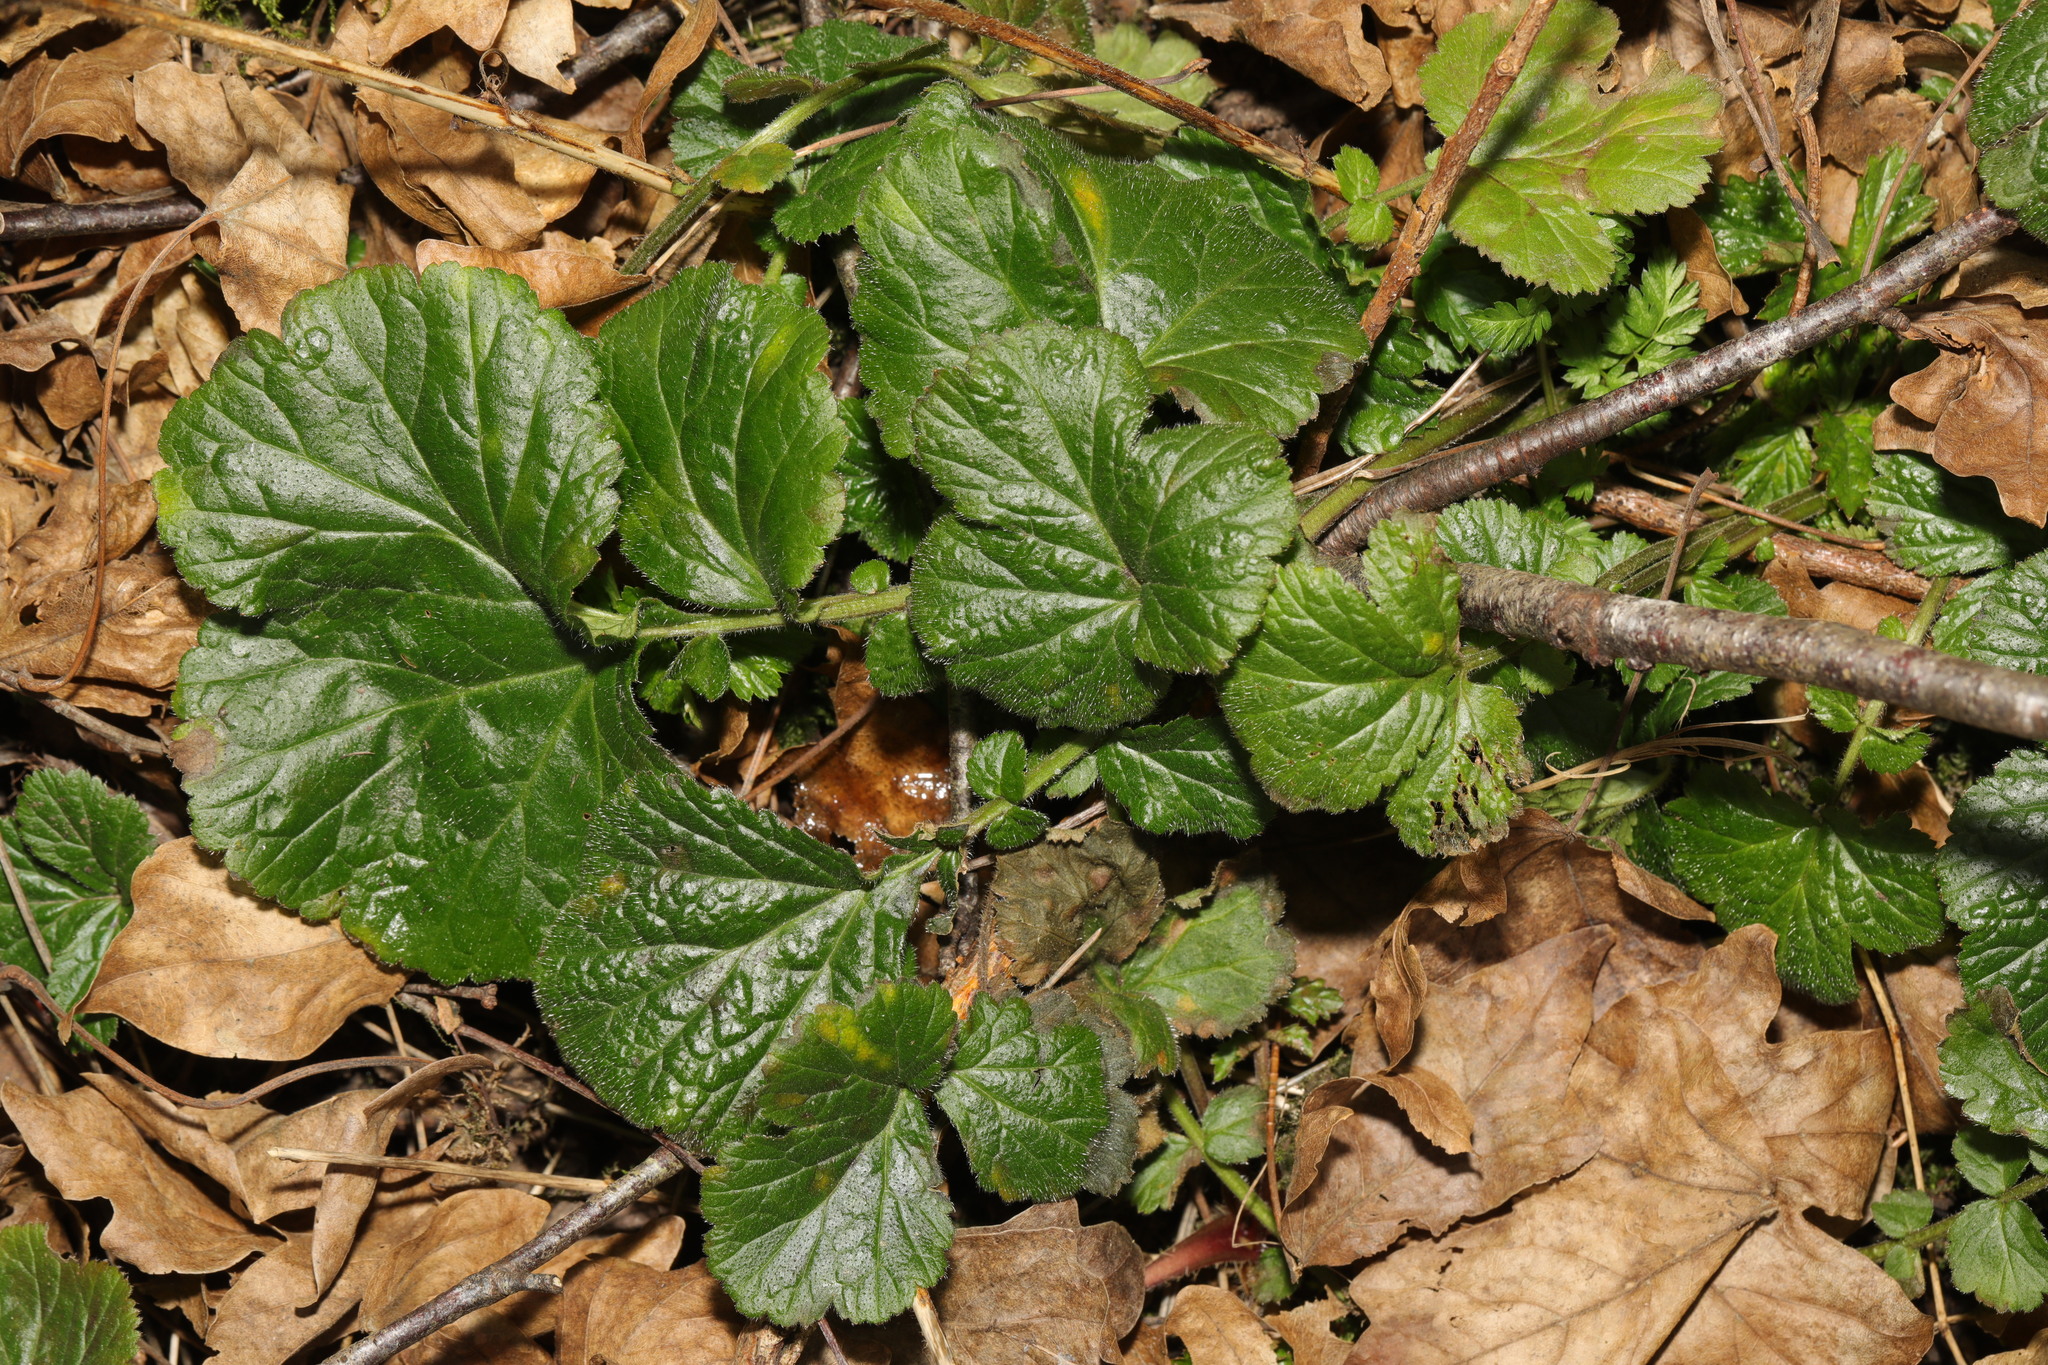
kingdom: Plantae
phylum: Tracheophyta
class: Magnoliopsida
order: Rosales
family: Rosaceae
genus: Geum
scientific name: Geum urbanum
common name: Wood avens
